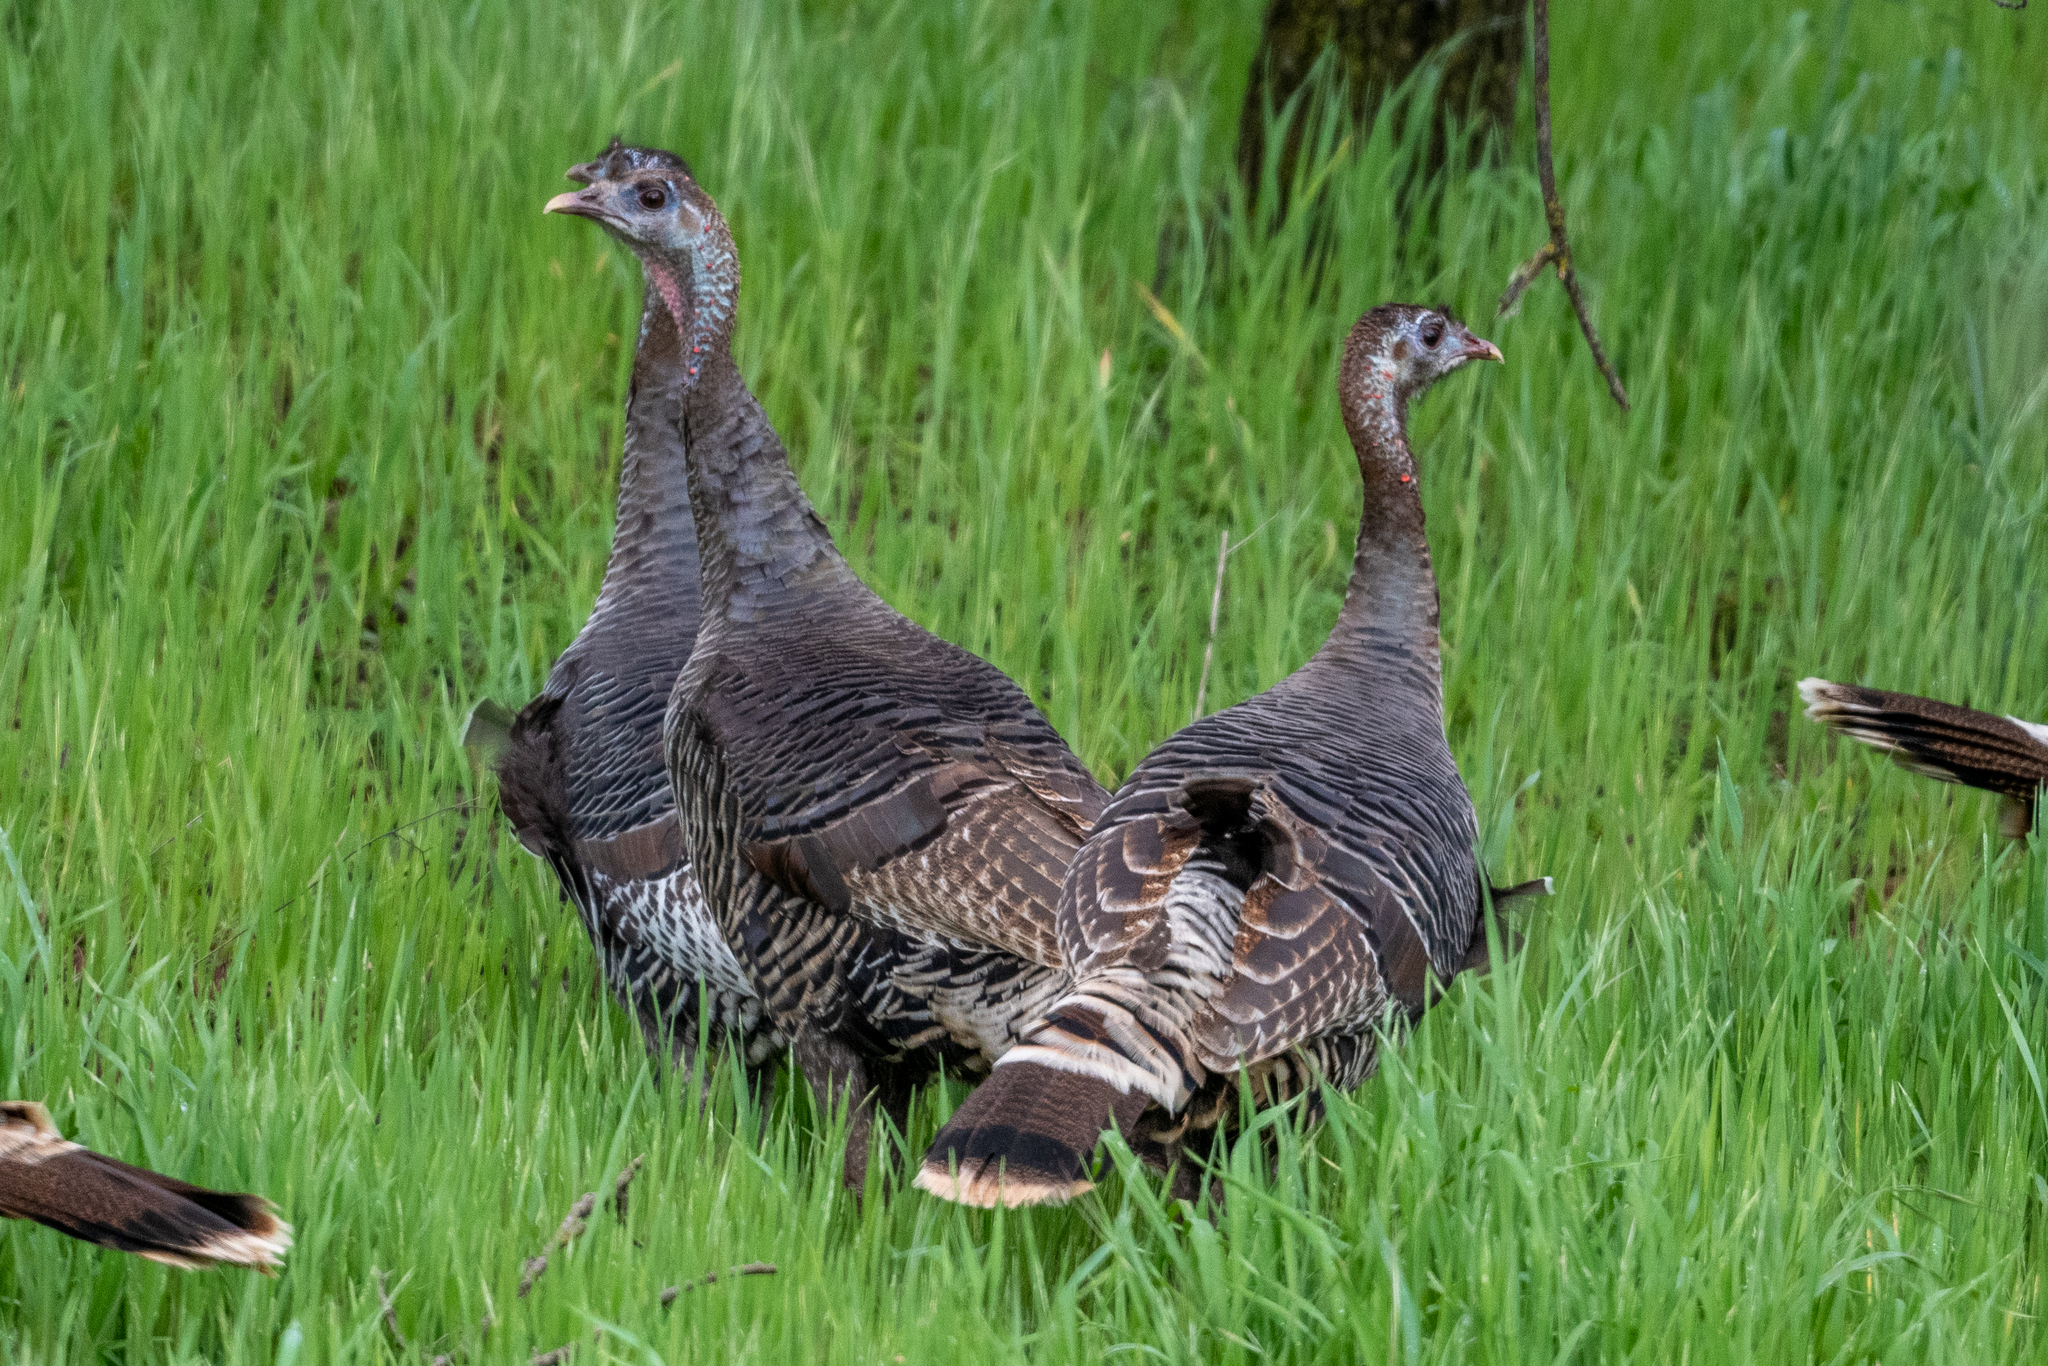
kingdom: Animalia
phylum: Chordata
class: Aves
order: Galliformes
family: Phasianidae
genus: Meleagris
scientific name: Meleagris gallopavo
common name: Wild turkey
